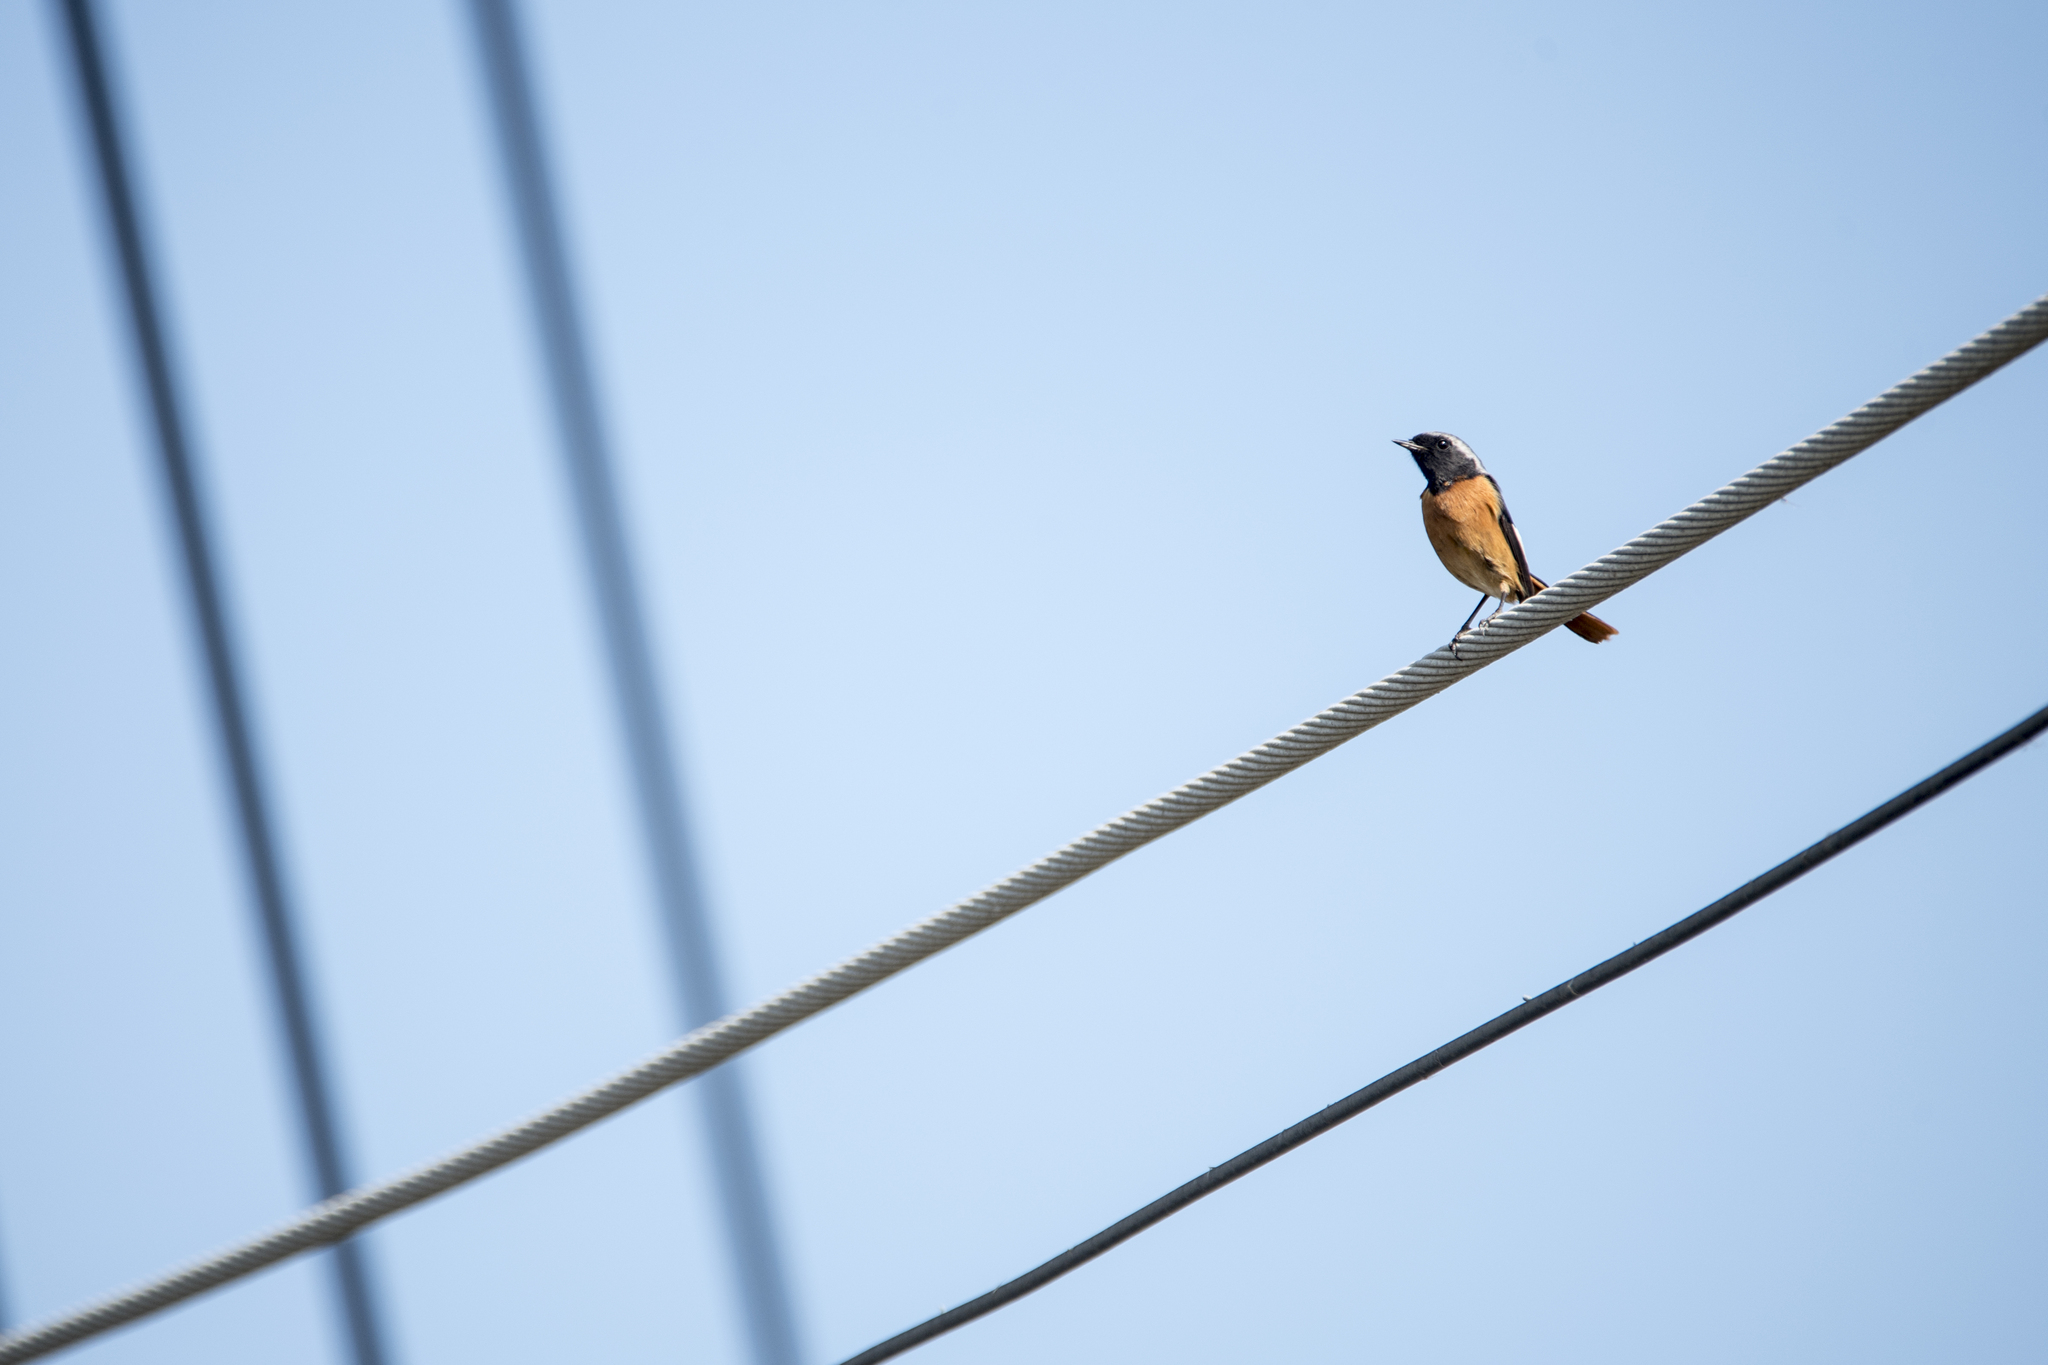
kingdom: Animalia
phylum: Chordata
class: Aves
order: Passeriformes
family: Muscicapidae
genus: Phoenicurus
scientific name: Phoenicurus auroreus
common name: Daurian redstart
